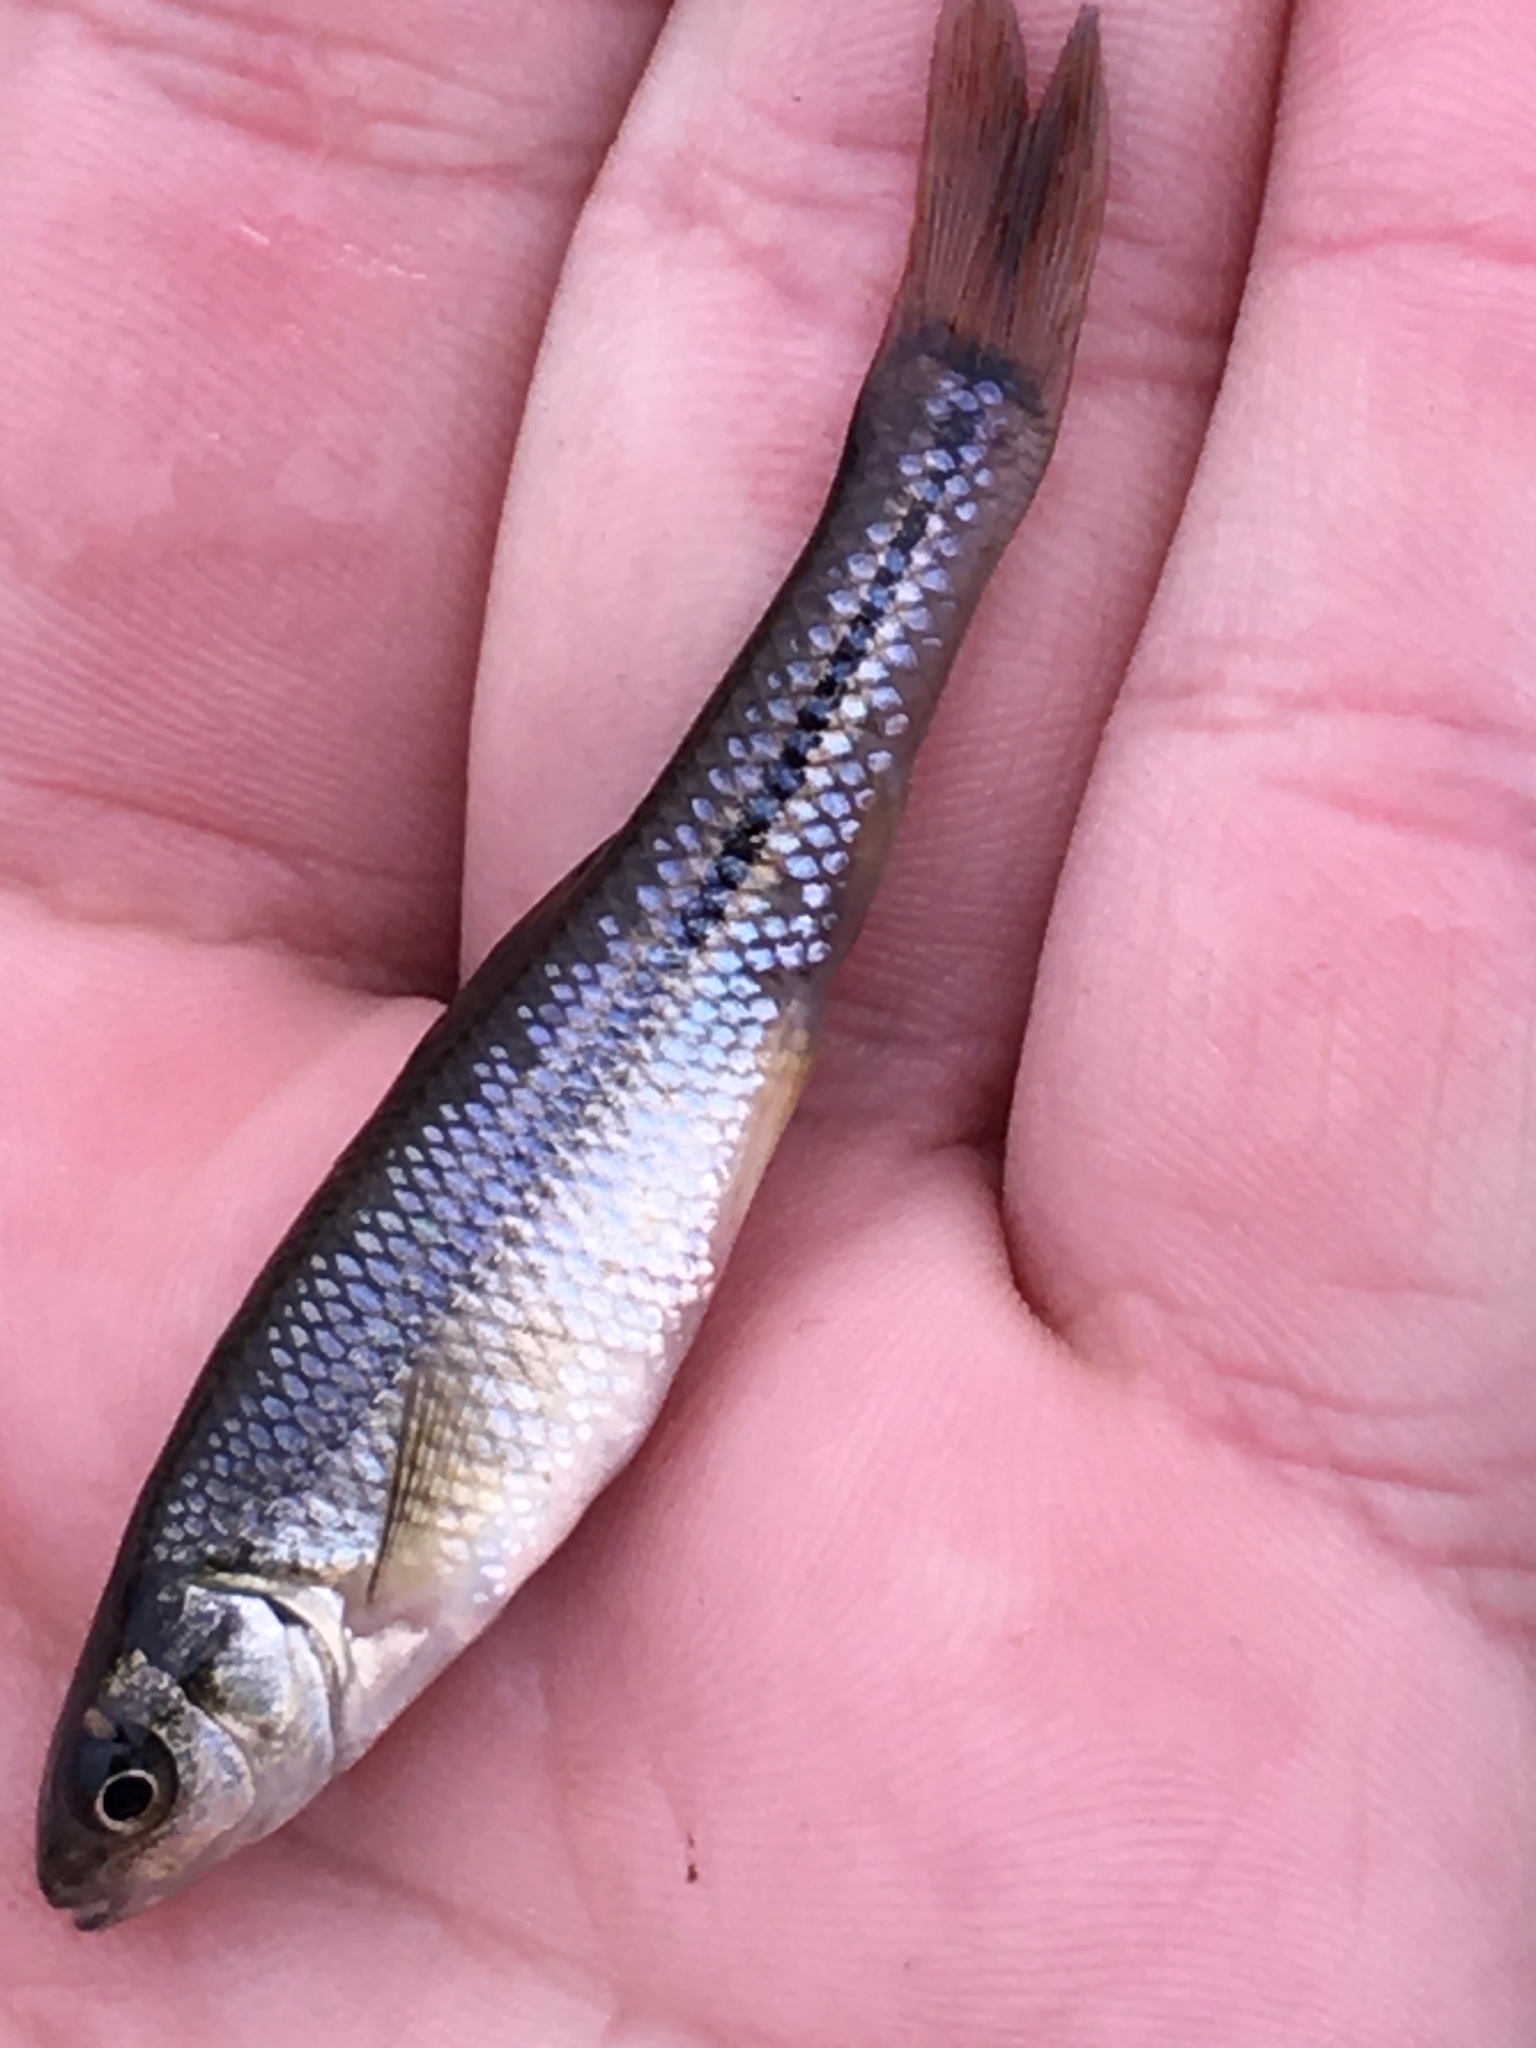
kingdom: Animalia
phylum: Chordata
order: Cypriniformes
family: Cyprinidae
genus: Pimephales
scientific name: Pimephales notatus
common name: Bluntnose minnow
